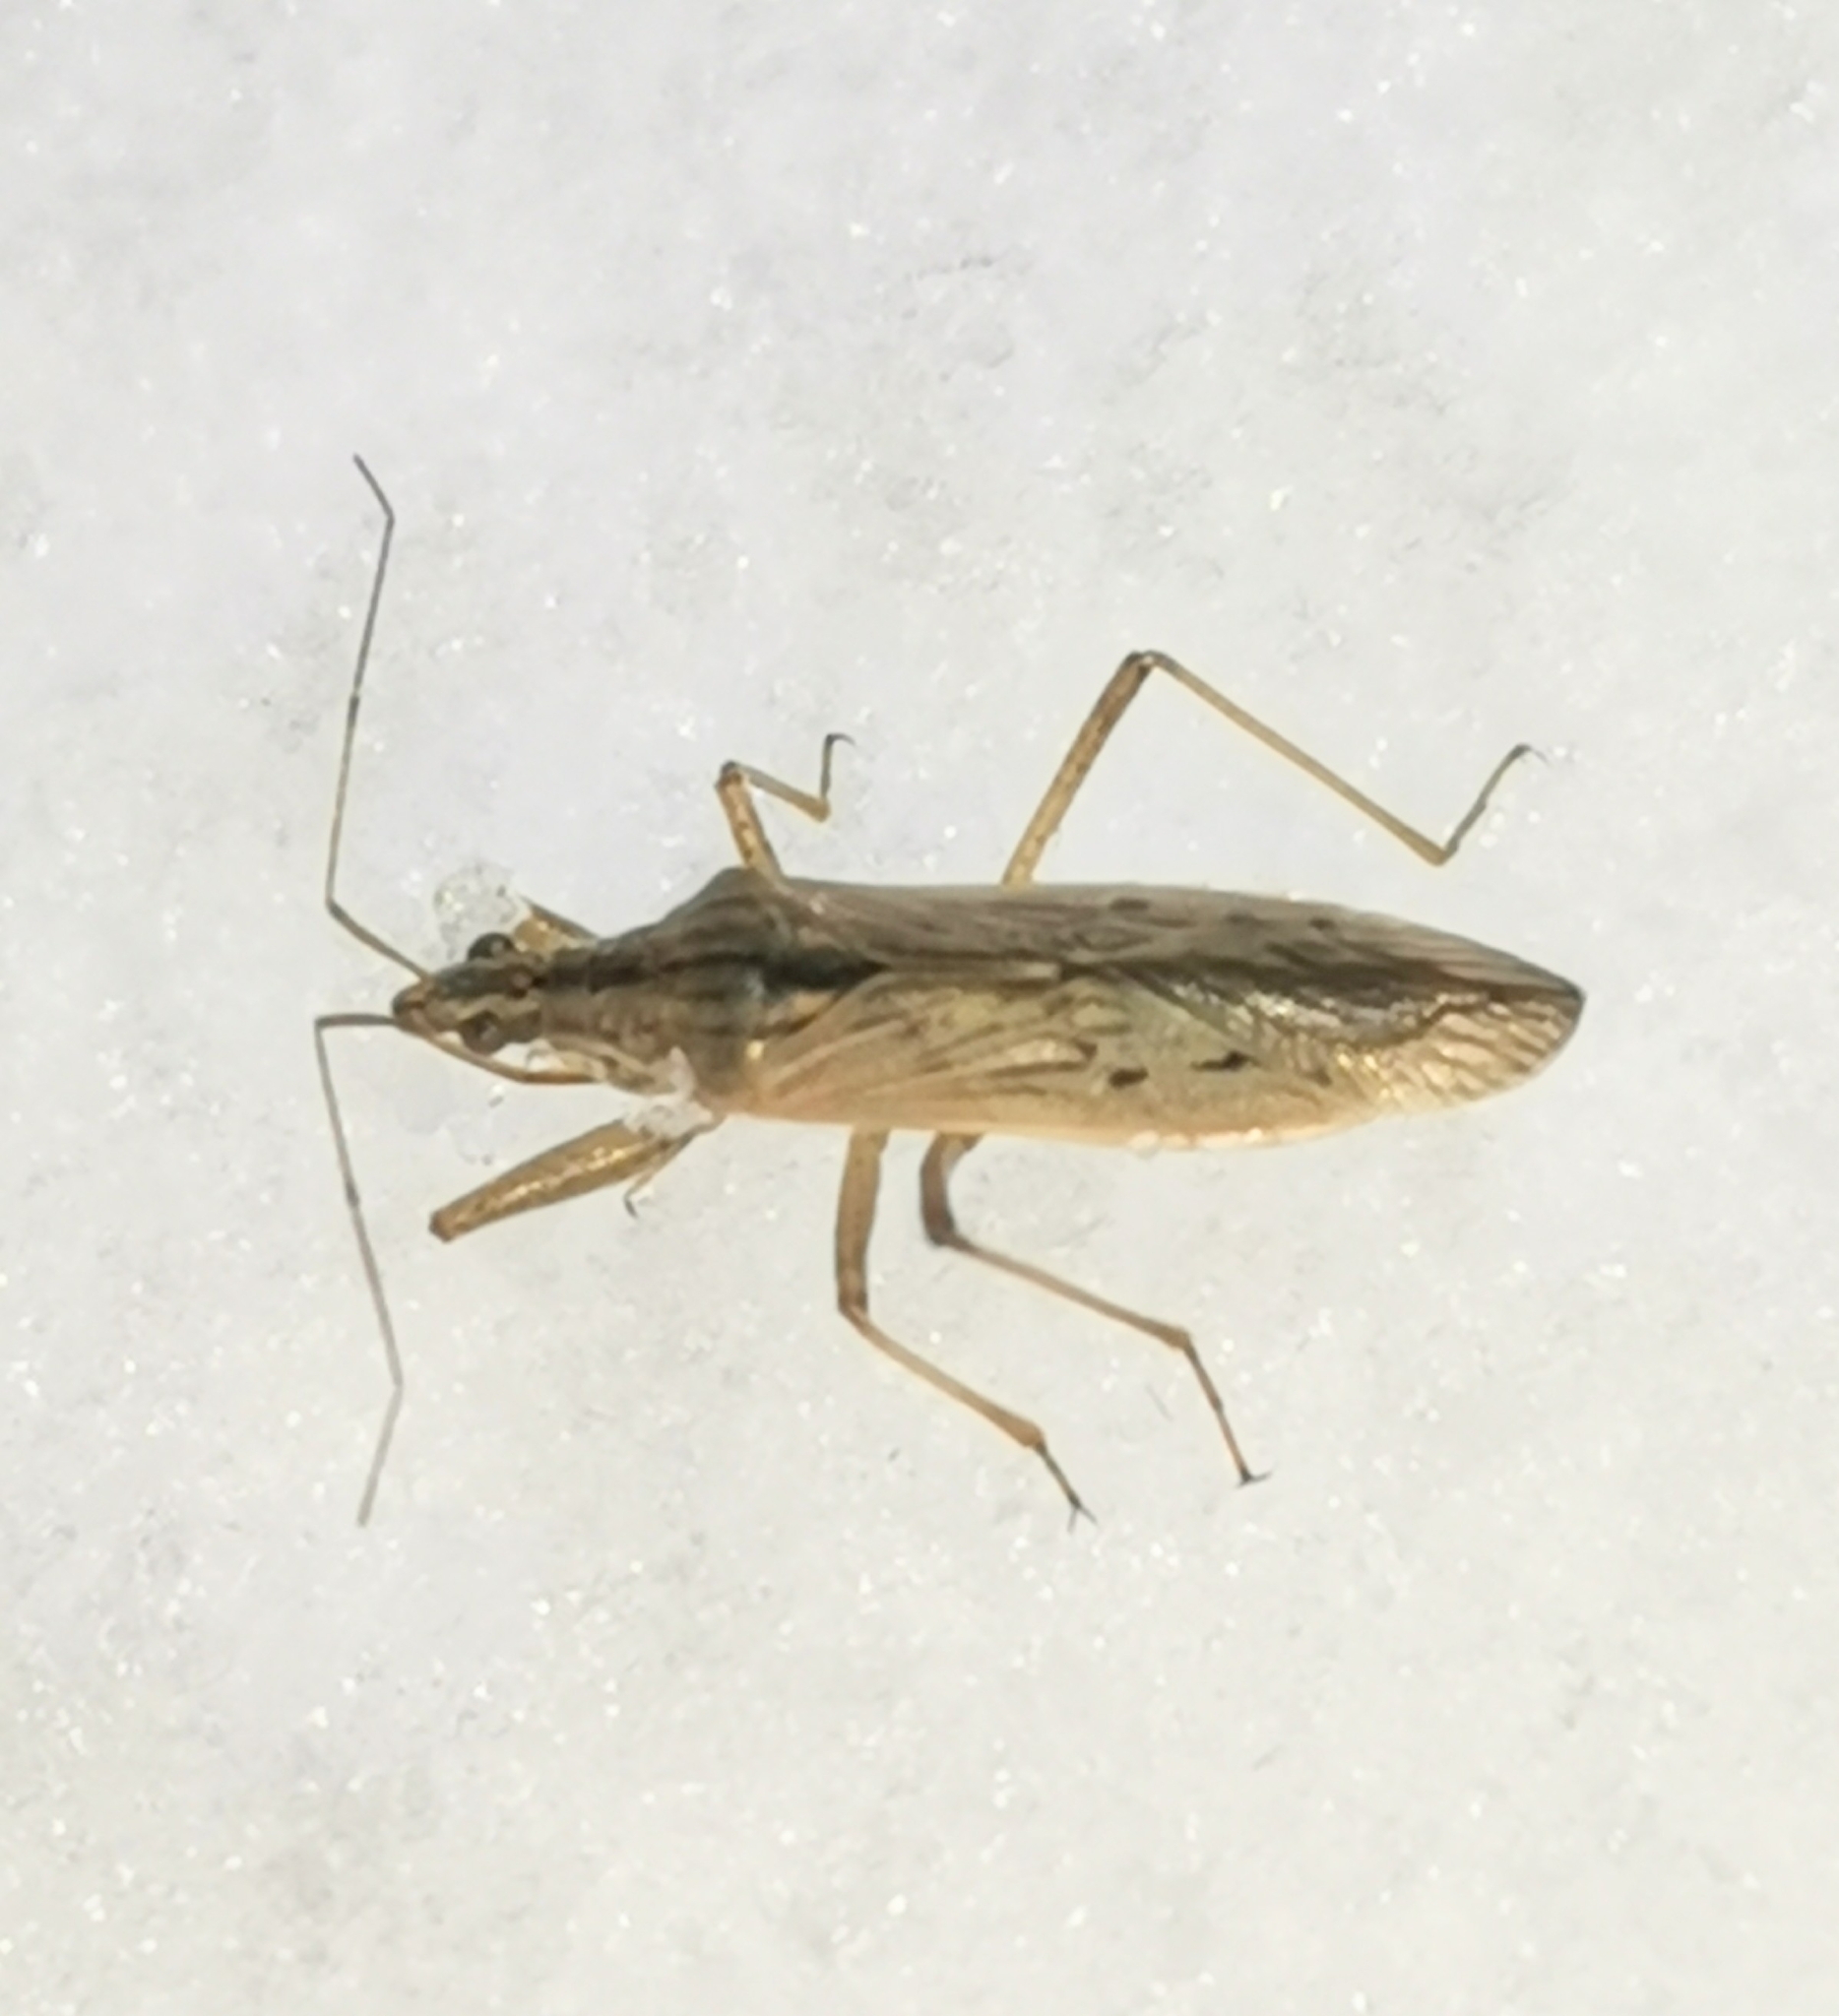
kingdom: Animalia
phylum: Arthropoda
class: Insecta
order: Hemiptera
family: Nabidae
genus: Nabis
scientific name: Nabis ferus
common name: Field damsel bug
